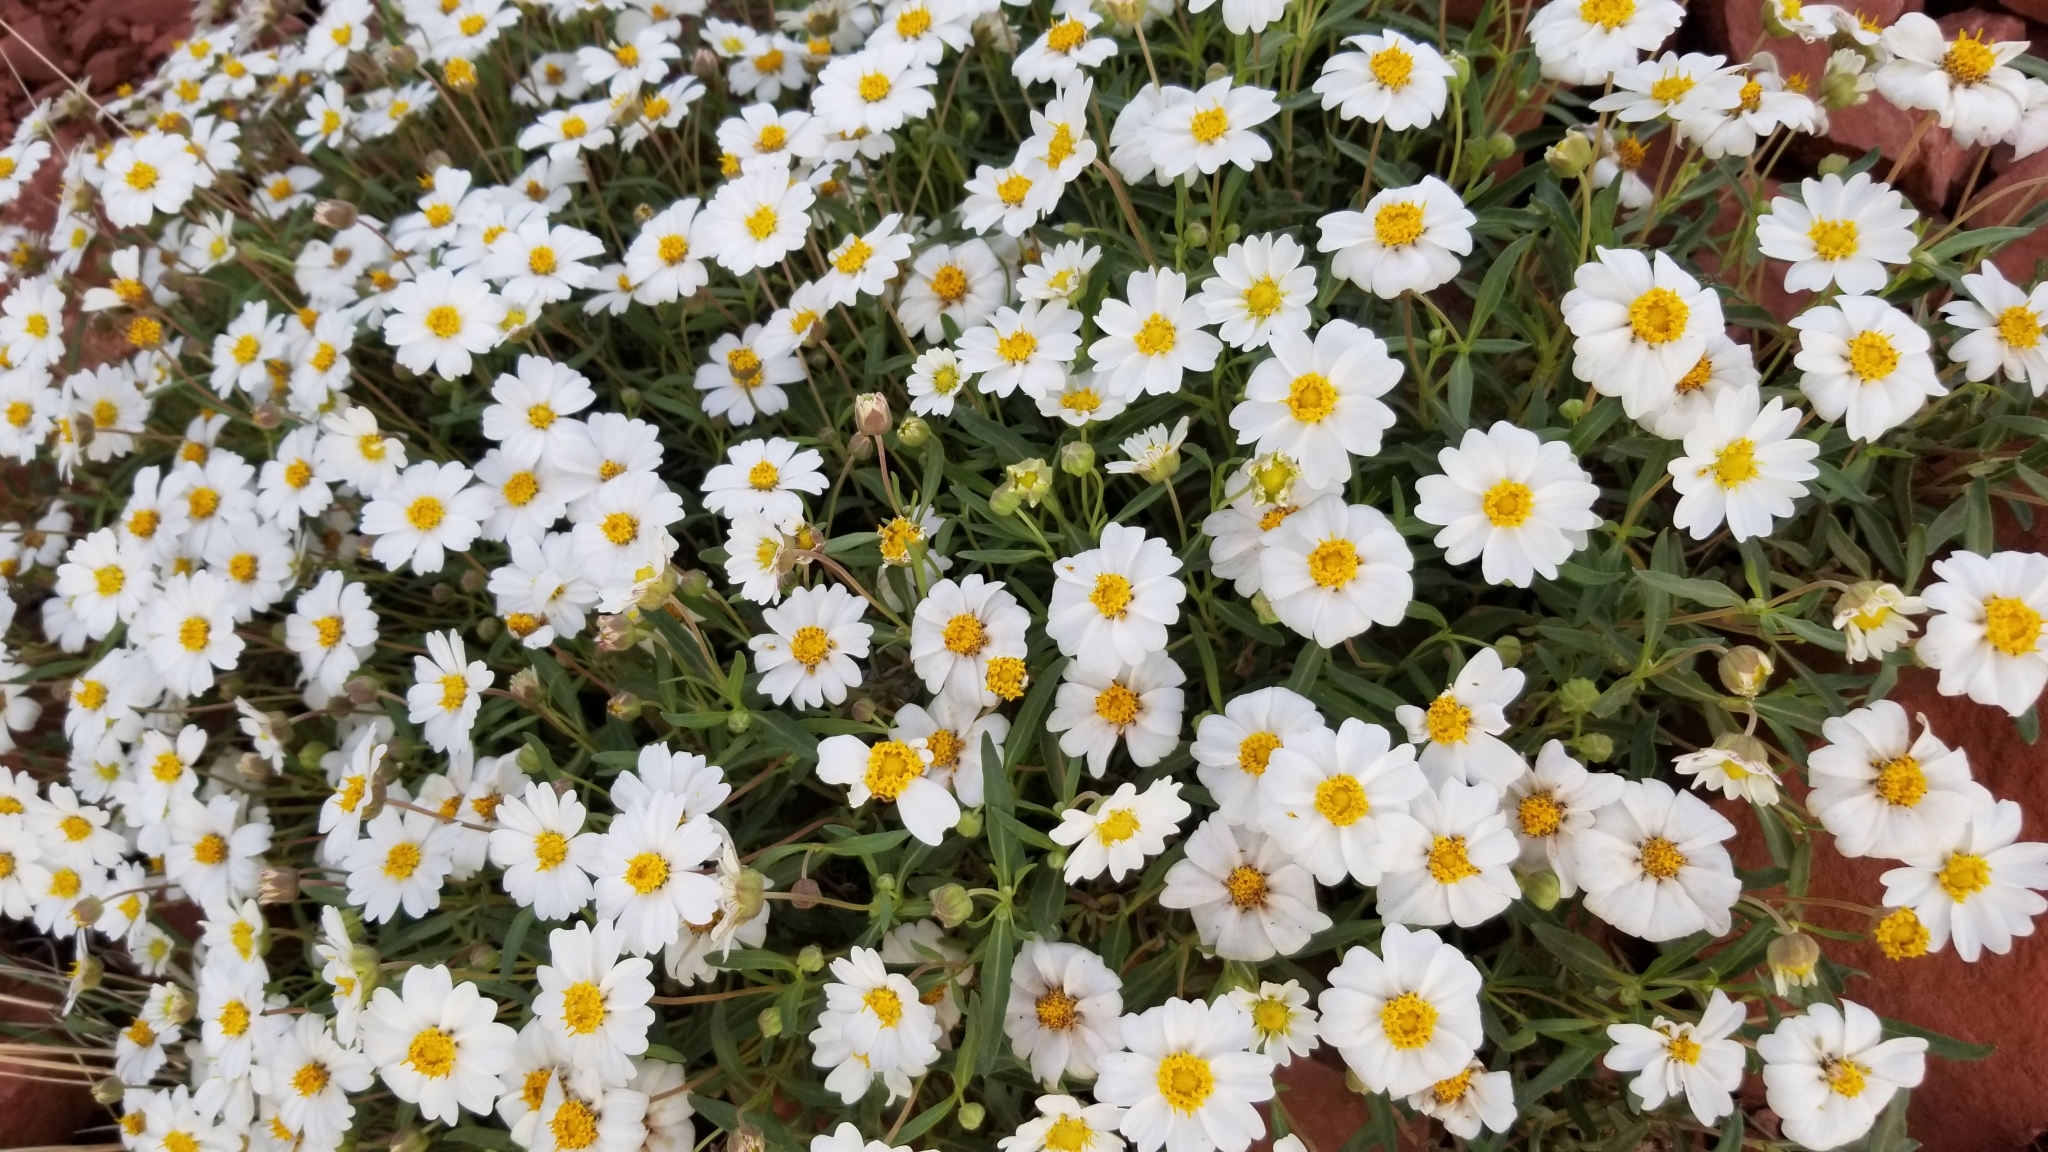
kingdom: Plantae
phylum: Tracheophyta
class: Magnoliopsida
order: Asterales
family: Asteraceae
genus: Melampodium
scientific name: Melampodium leucanthum
